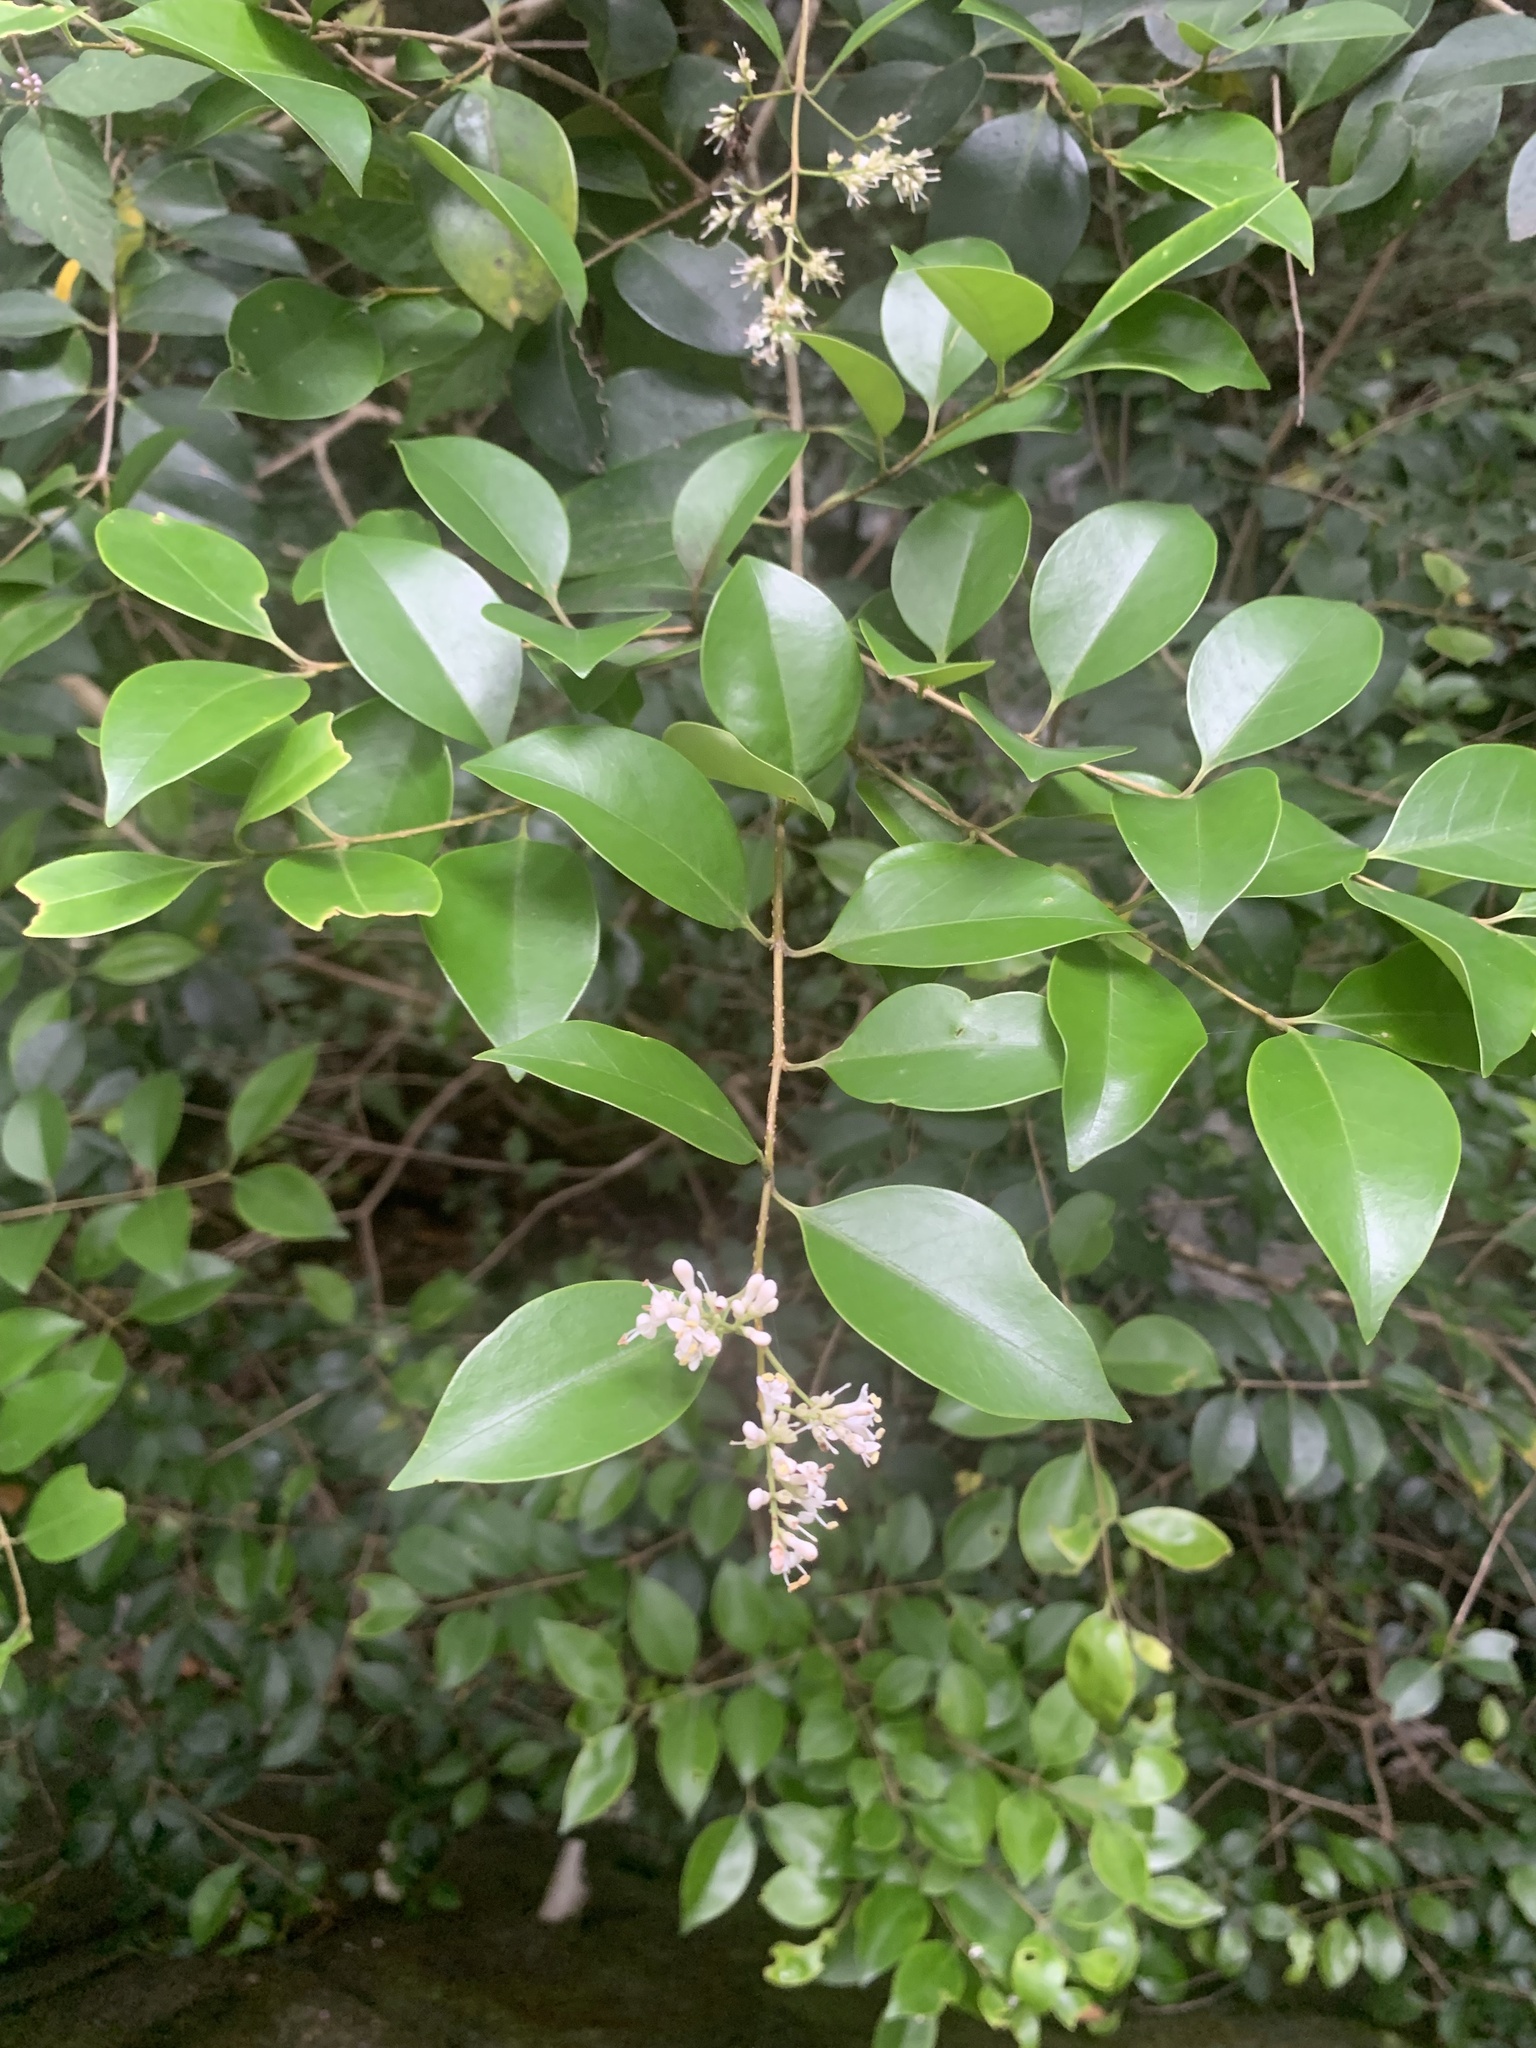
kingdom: Plantae
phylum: Tracheophyta
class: Magnoliopsida
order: Lamiales
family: Oleaceae
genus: Ligustrum
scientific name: Ligustrum japonicum
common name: Japanese privet
